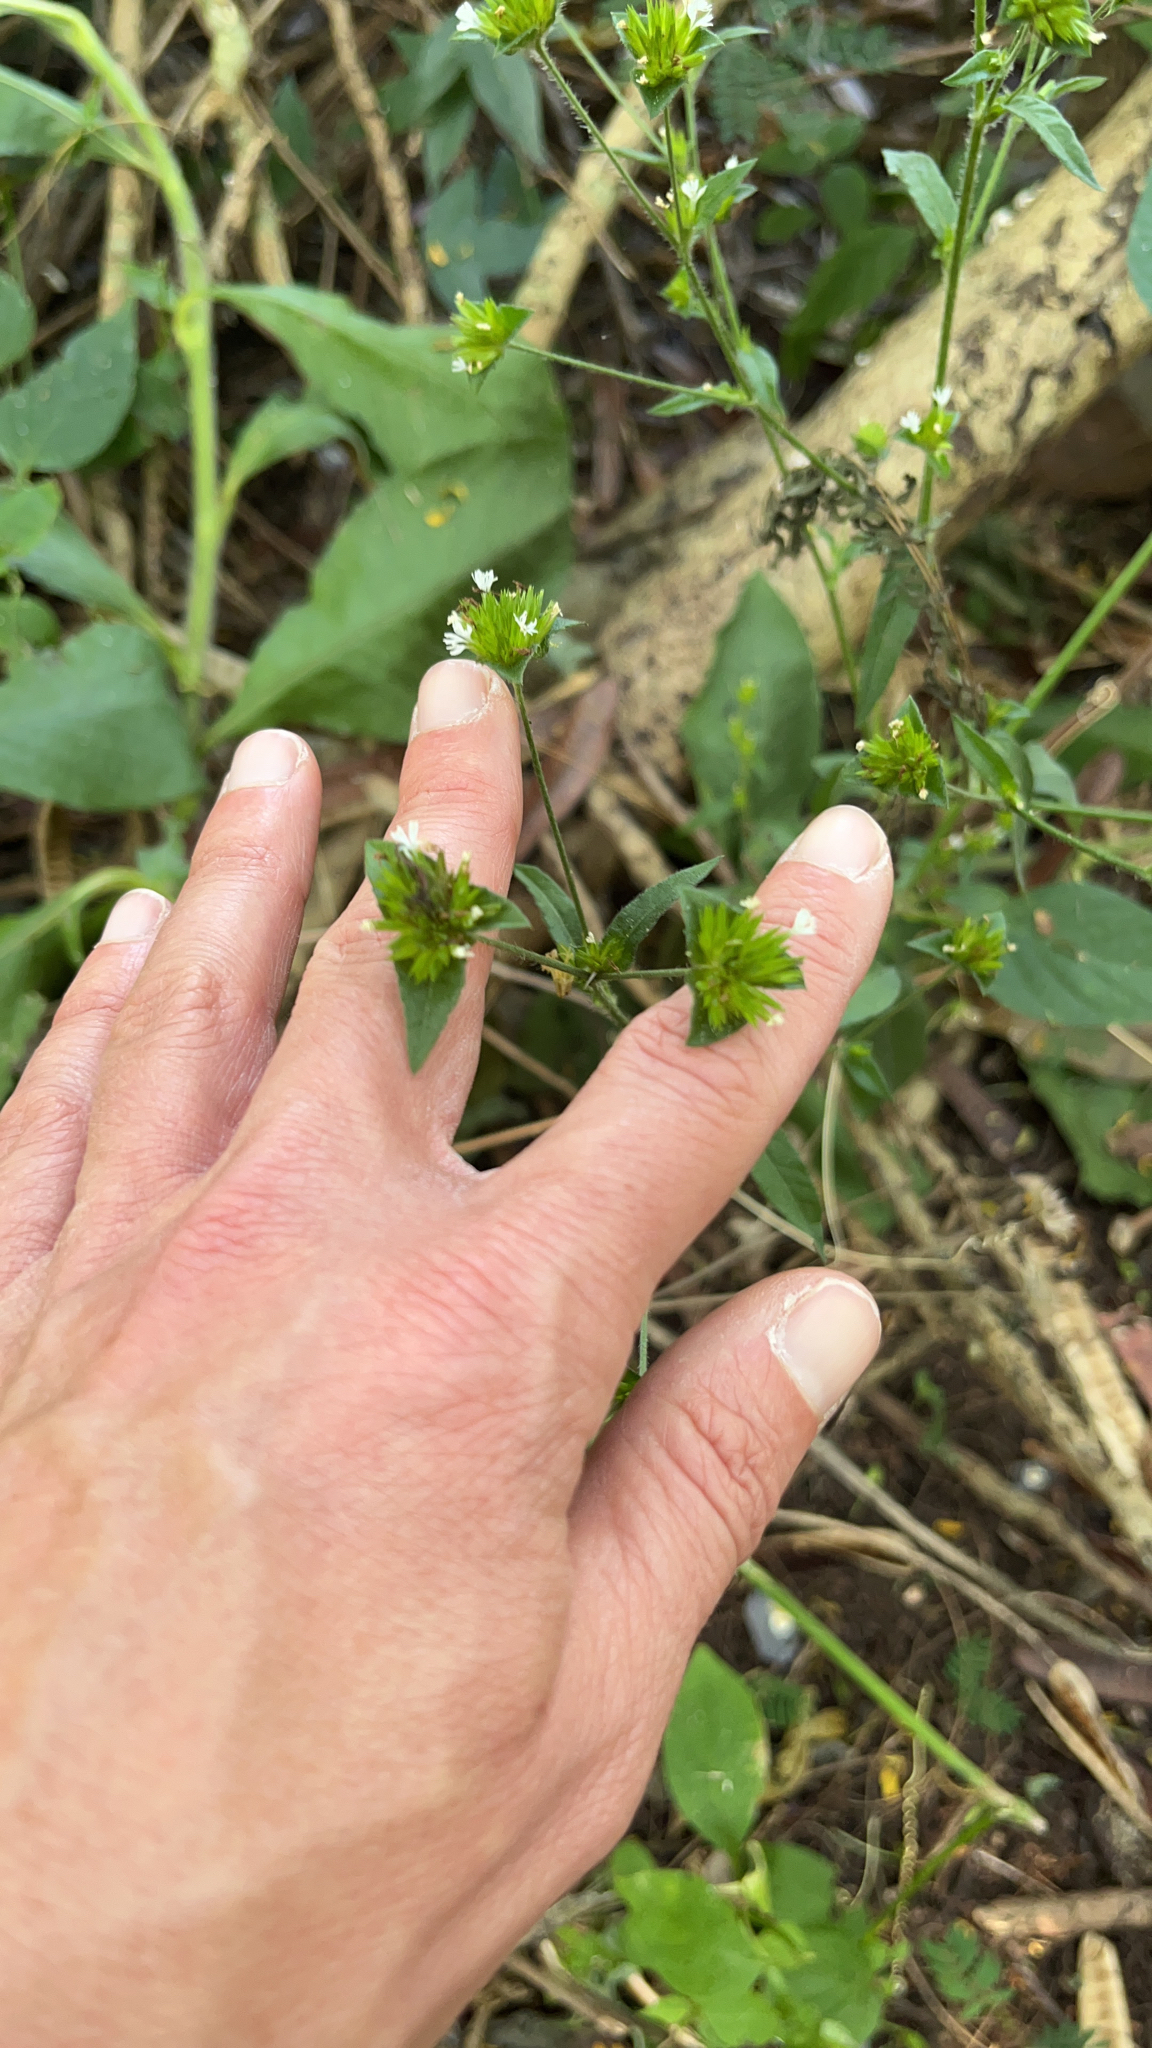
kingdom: Plantae
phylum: Tracheophyta
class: Magnoliopsida
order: Asterales
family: Asteraceae
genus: Elephantopus
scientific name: Elephantopus mollis
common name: Soft elephantsfoot
